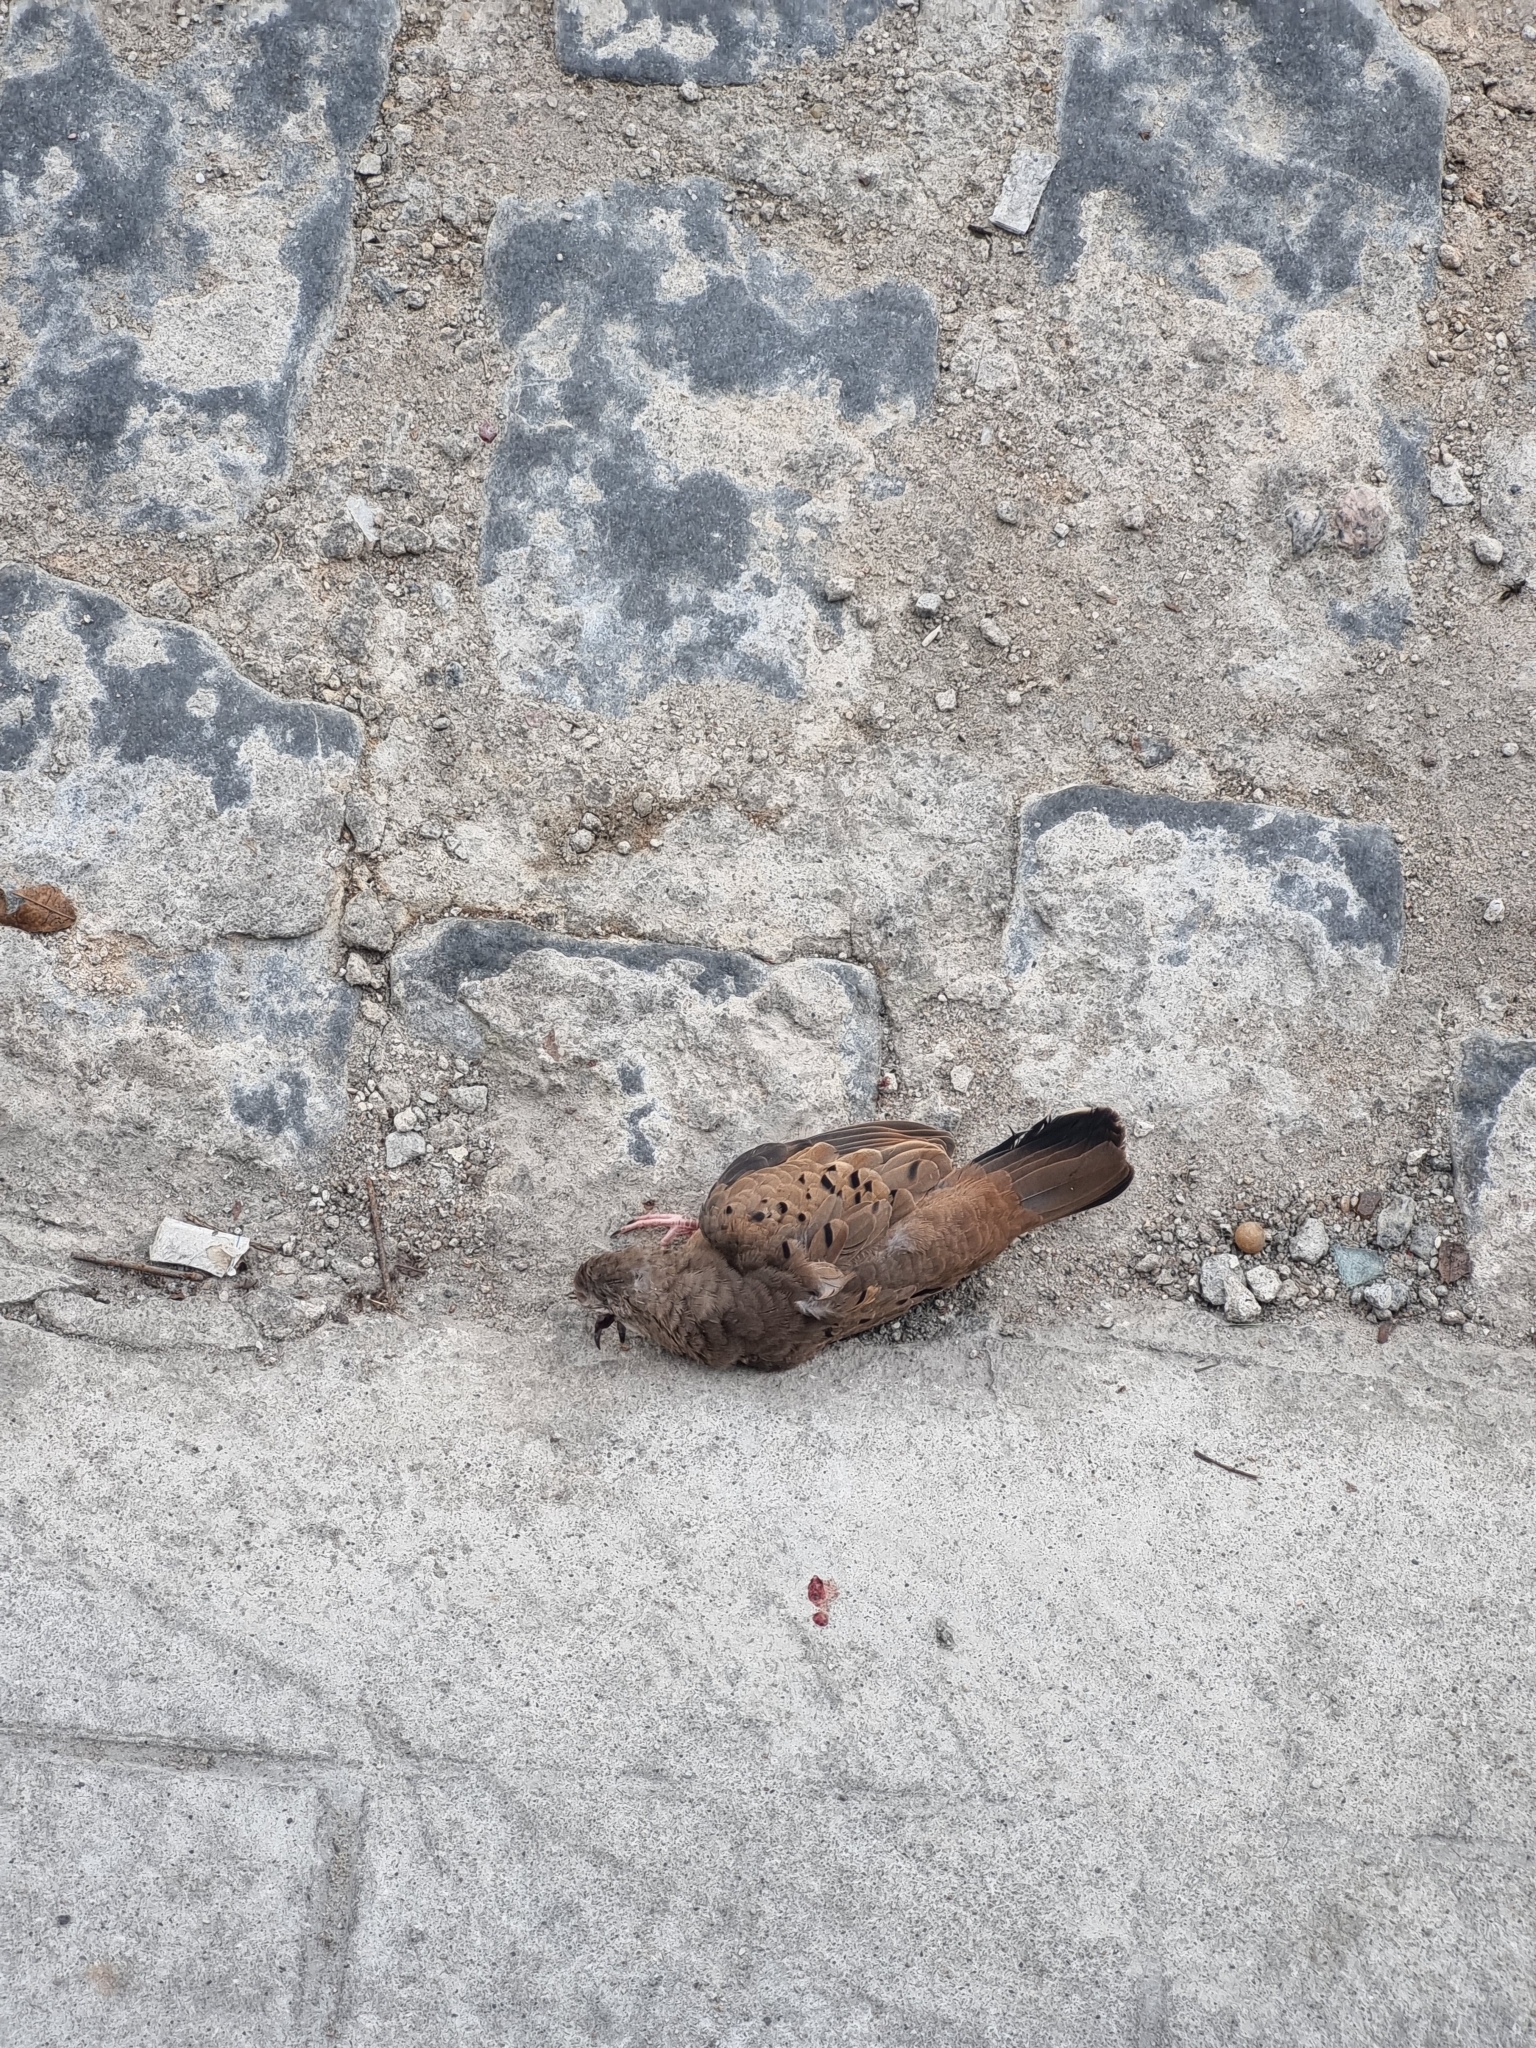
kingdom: Animalia
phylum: Chordata
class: Aves
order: Columbiformes
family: Columbidae
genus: Columbina
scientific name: Columbina talpacoti
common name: Ruddy ground dove
